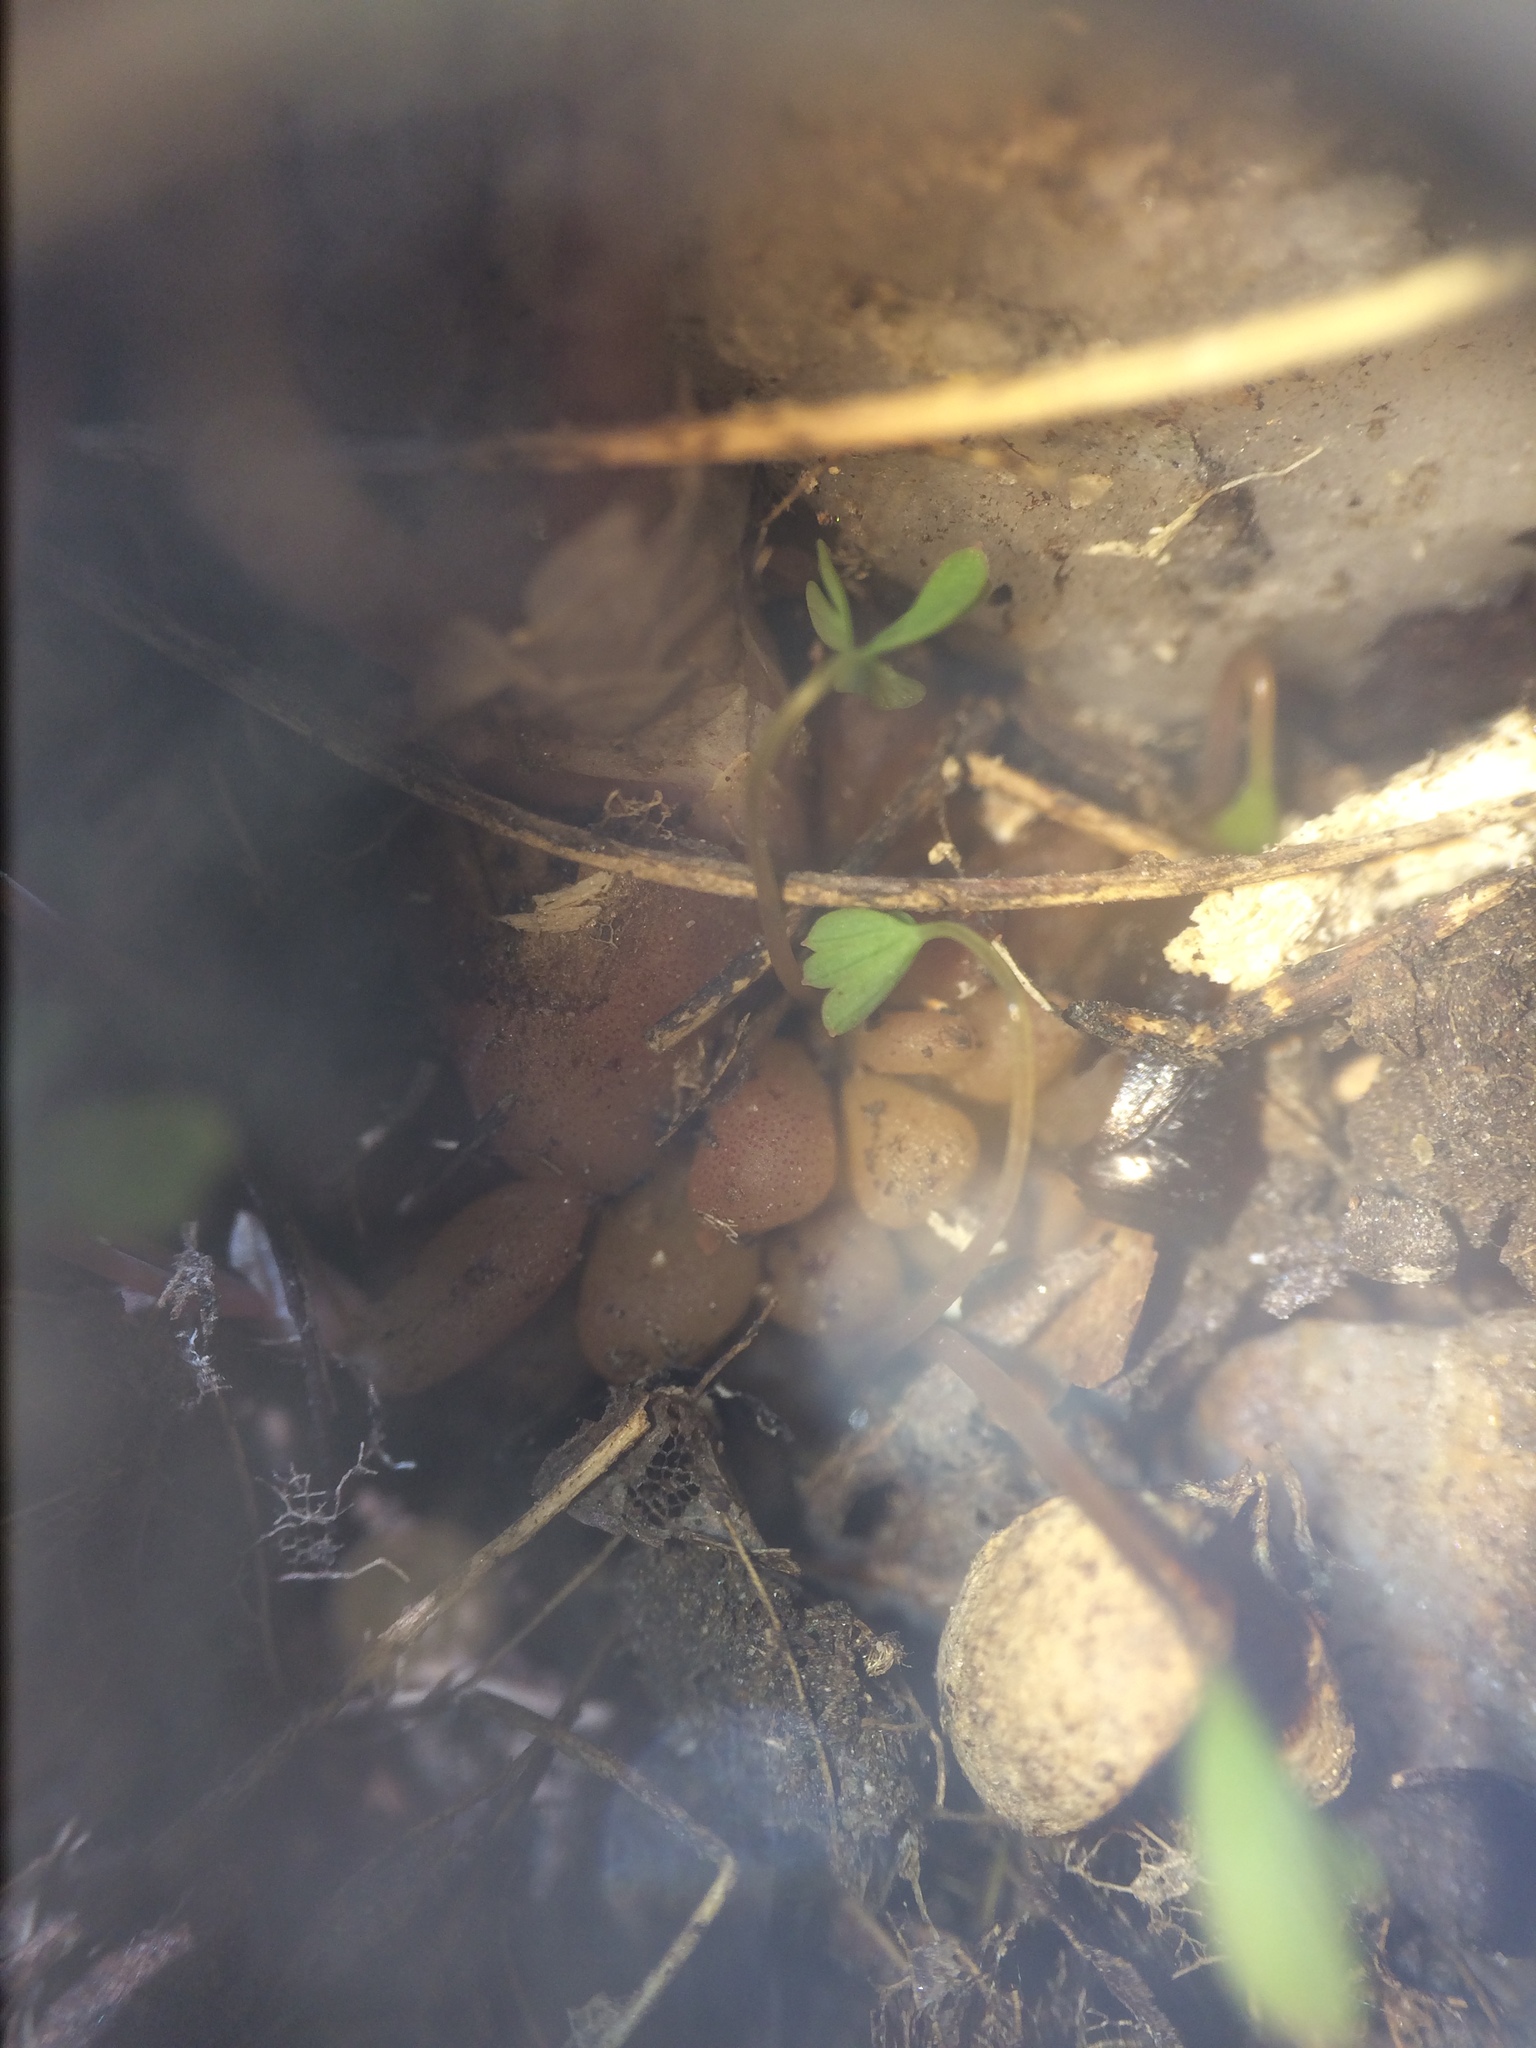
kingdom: Plantae
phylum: Tracheophyta
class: Magnoliopsida
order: Ranunculales
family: Papaveraceae
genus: Dicentra
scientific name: Dicentra cucullaria
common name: Dutchman's breeches
